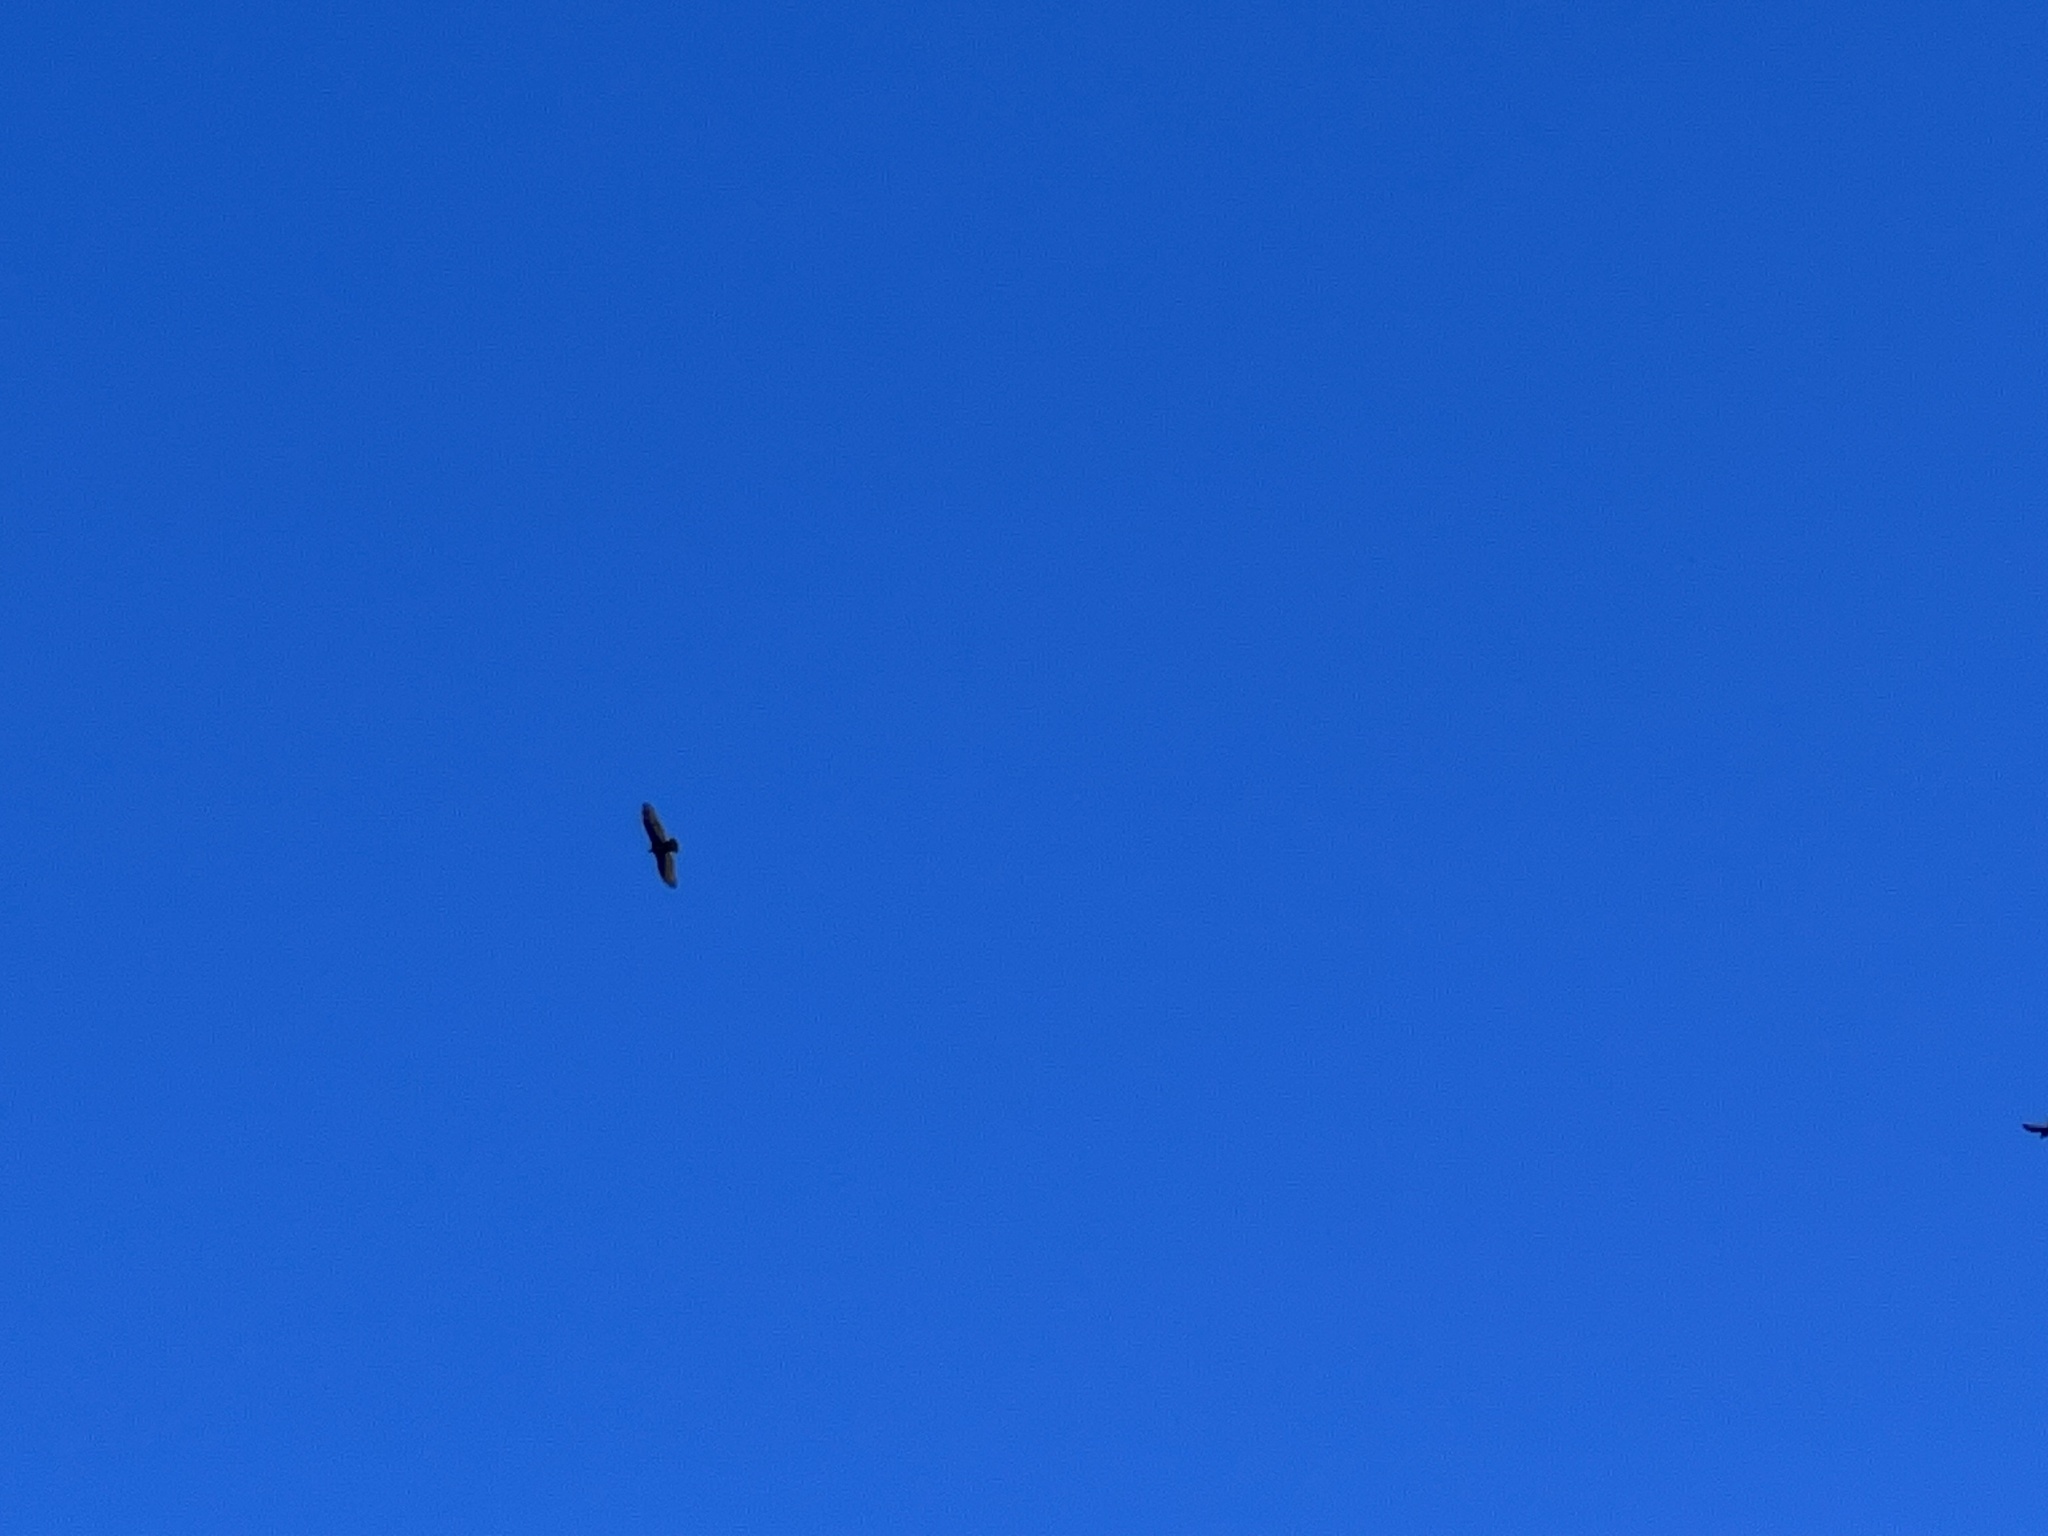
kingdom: Animalia
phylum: Chordata
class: Aves
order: Accipitriformes
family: Cathartidae
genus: Cathartes
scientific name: Cathartes aura
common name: Turkey vulture
